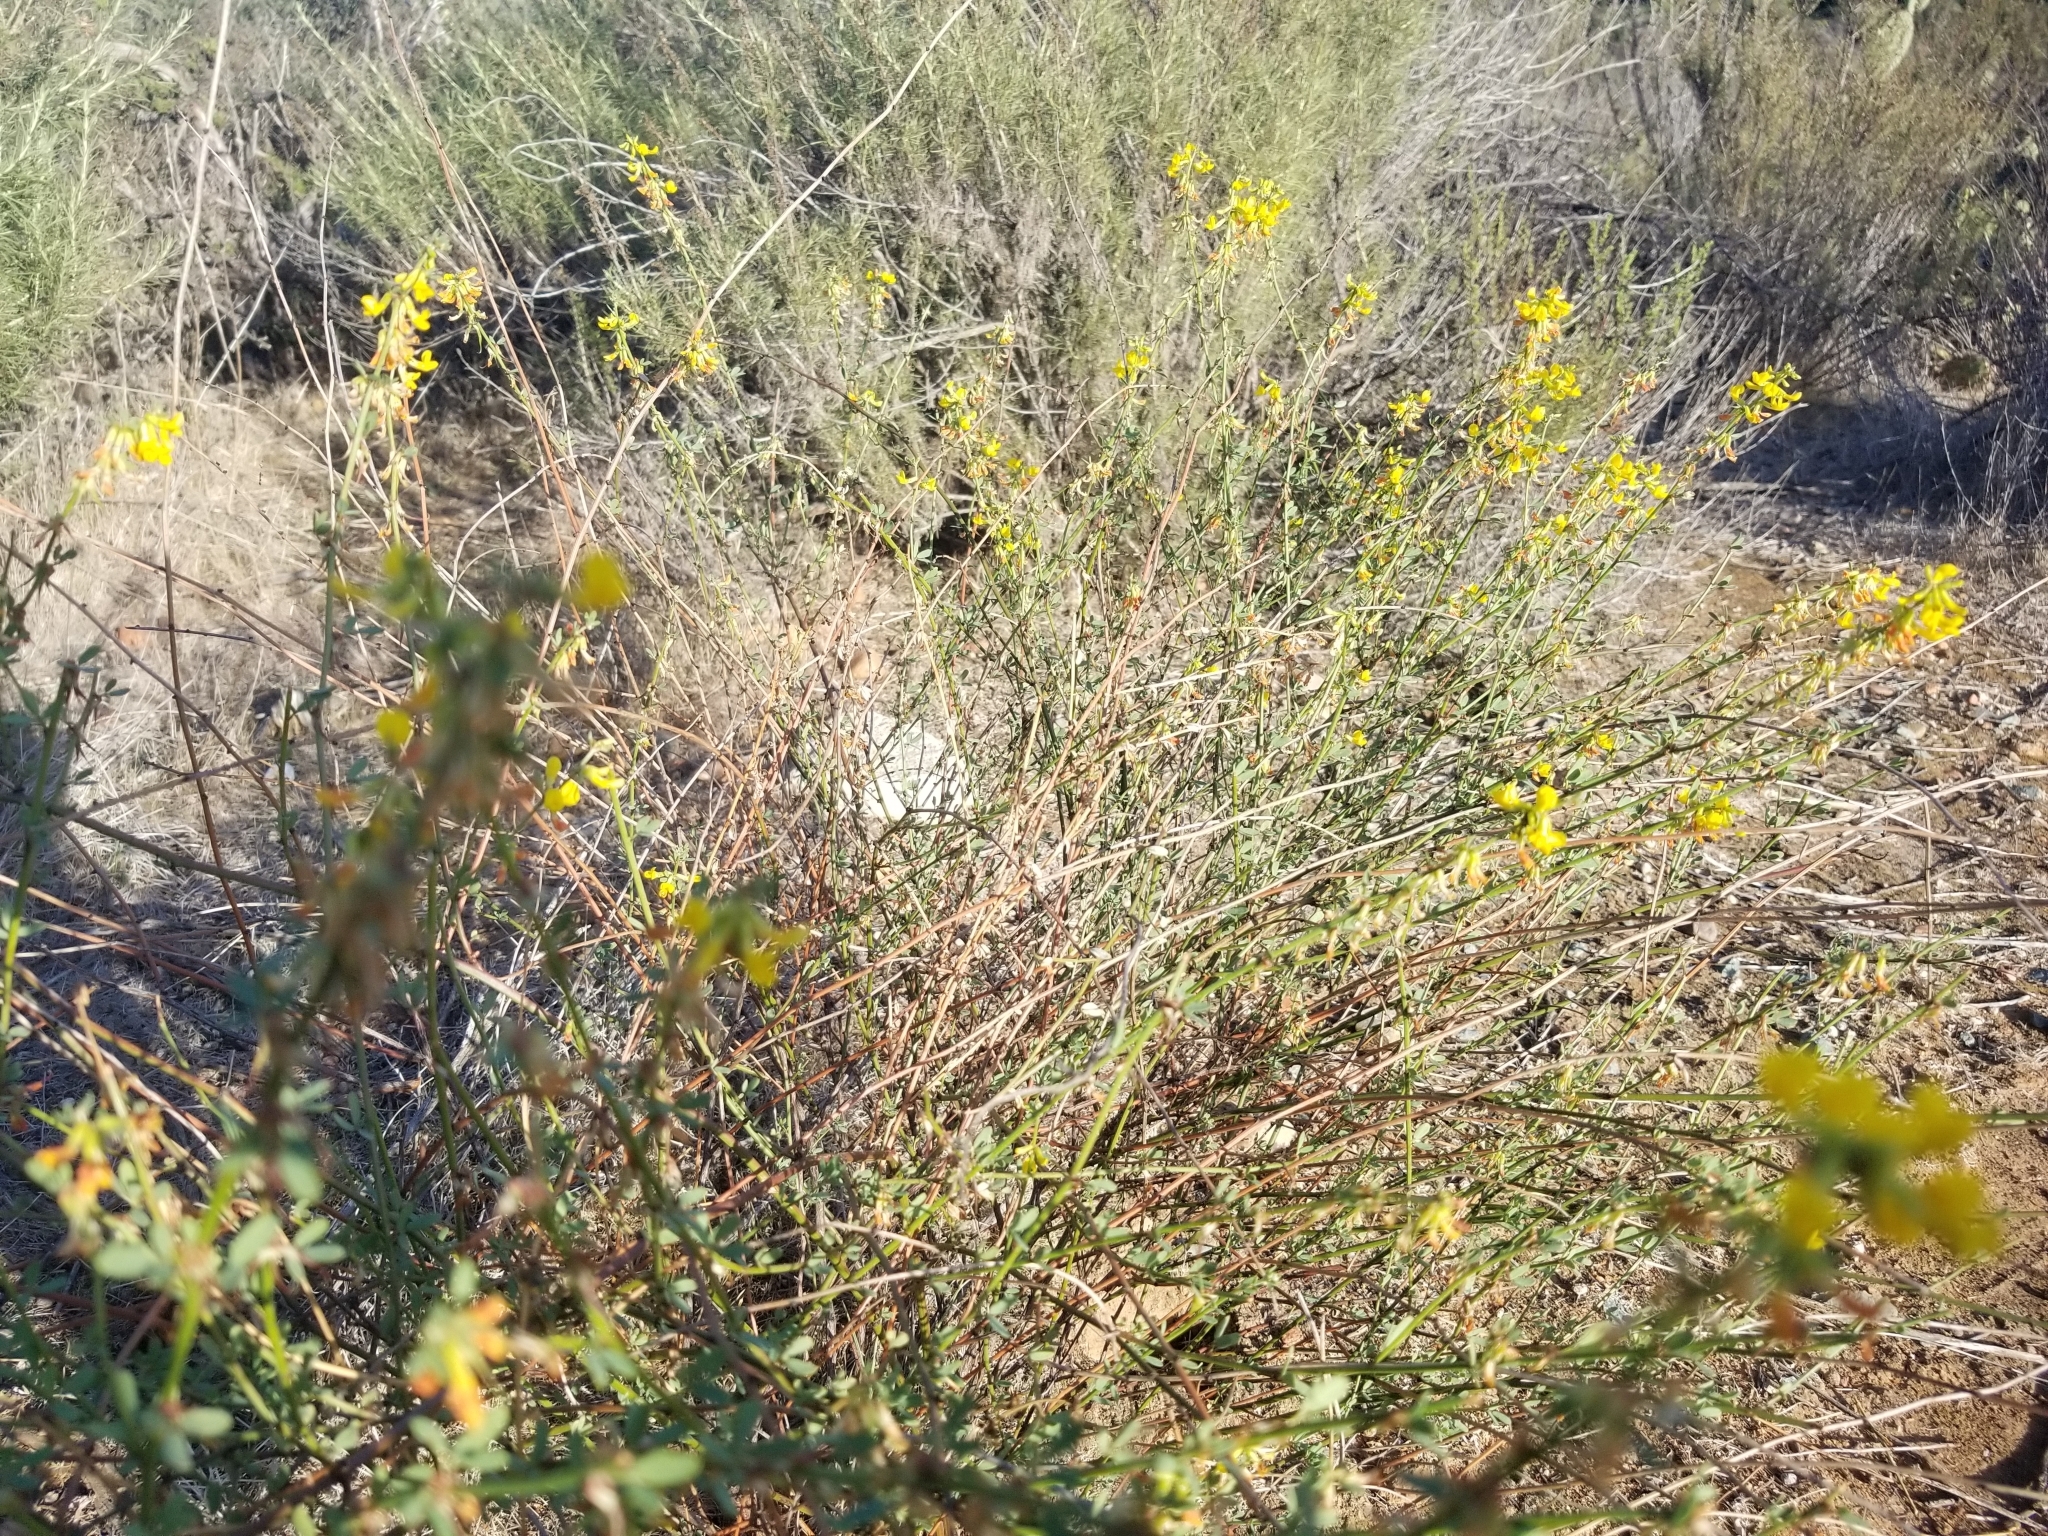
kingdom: Plantae
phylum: Tracheophyta
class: Magnoliopsida
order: Fabales
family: Fabaceae
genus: Acmispon
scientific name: Acmispon glaber
